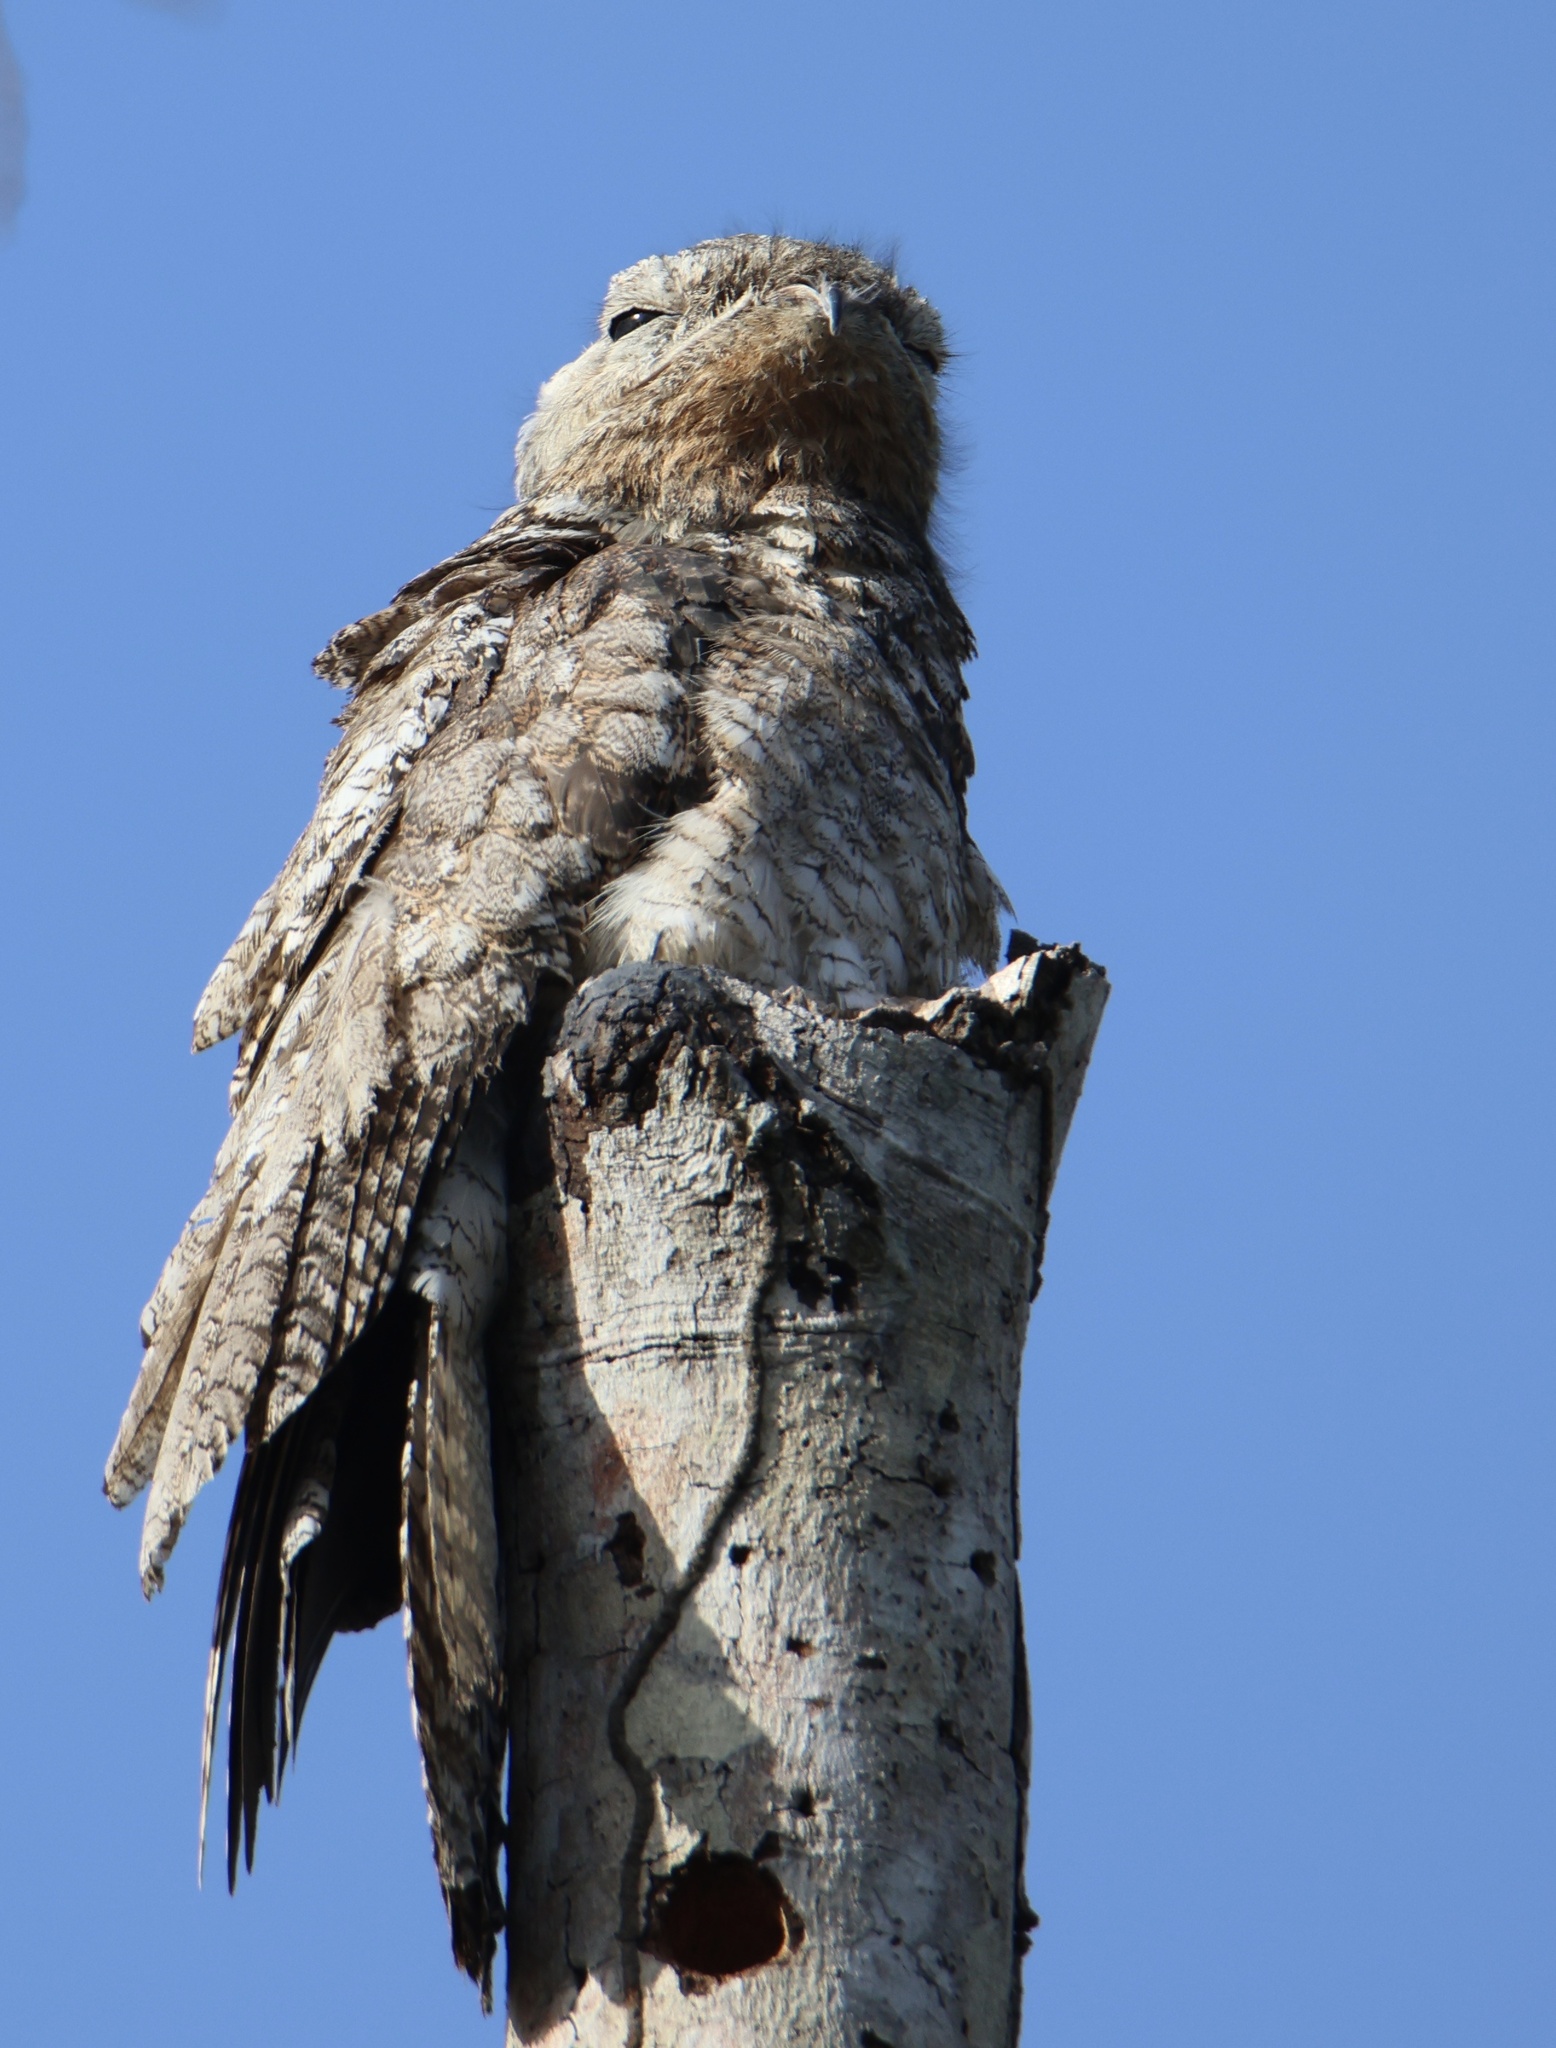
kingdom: Animalia
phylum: Chordata
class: Aves
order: Nyctibiiformes
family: Nyctibiidae
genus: Nyctibius
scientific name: Nyctibius grandis
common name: Great potoo
